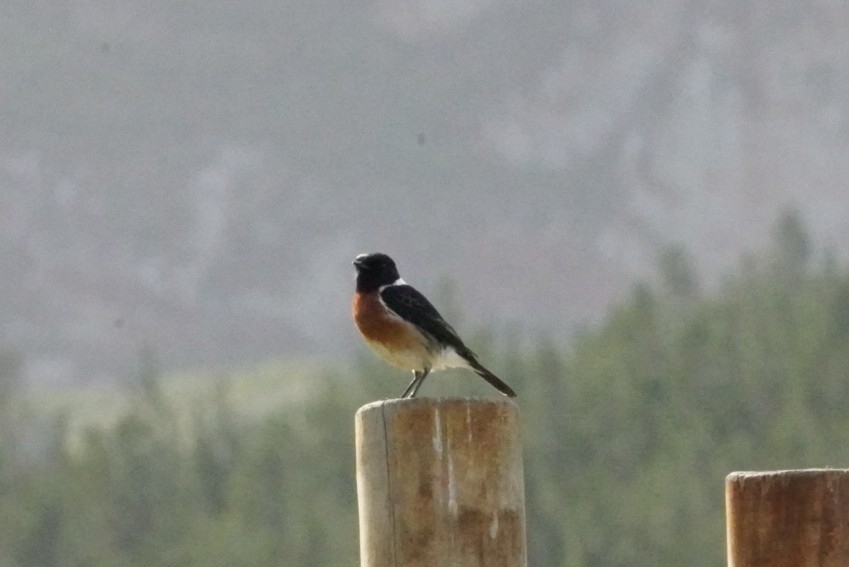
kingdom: Animalia
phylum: Chordata
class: Aves
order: Passeriformes
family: Muscicapidae
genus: Saxicola
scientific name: Saxicola torquatus
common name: African stonechat
